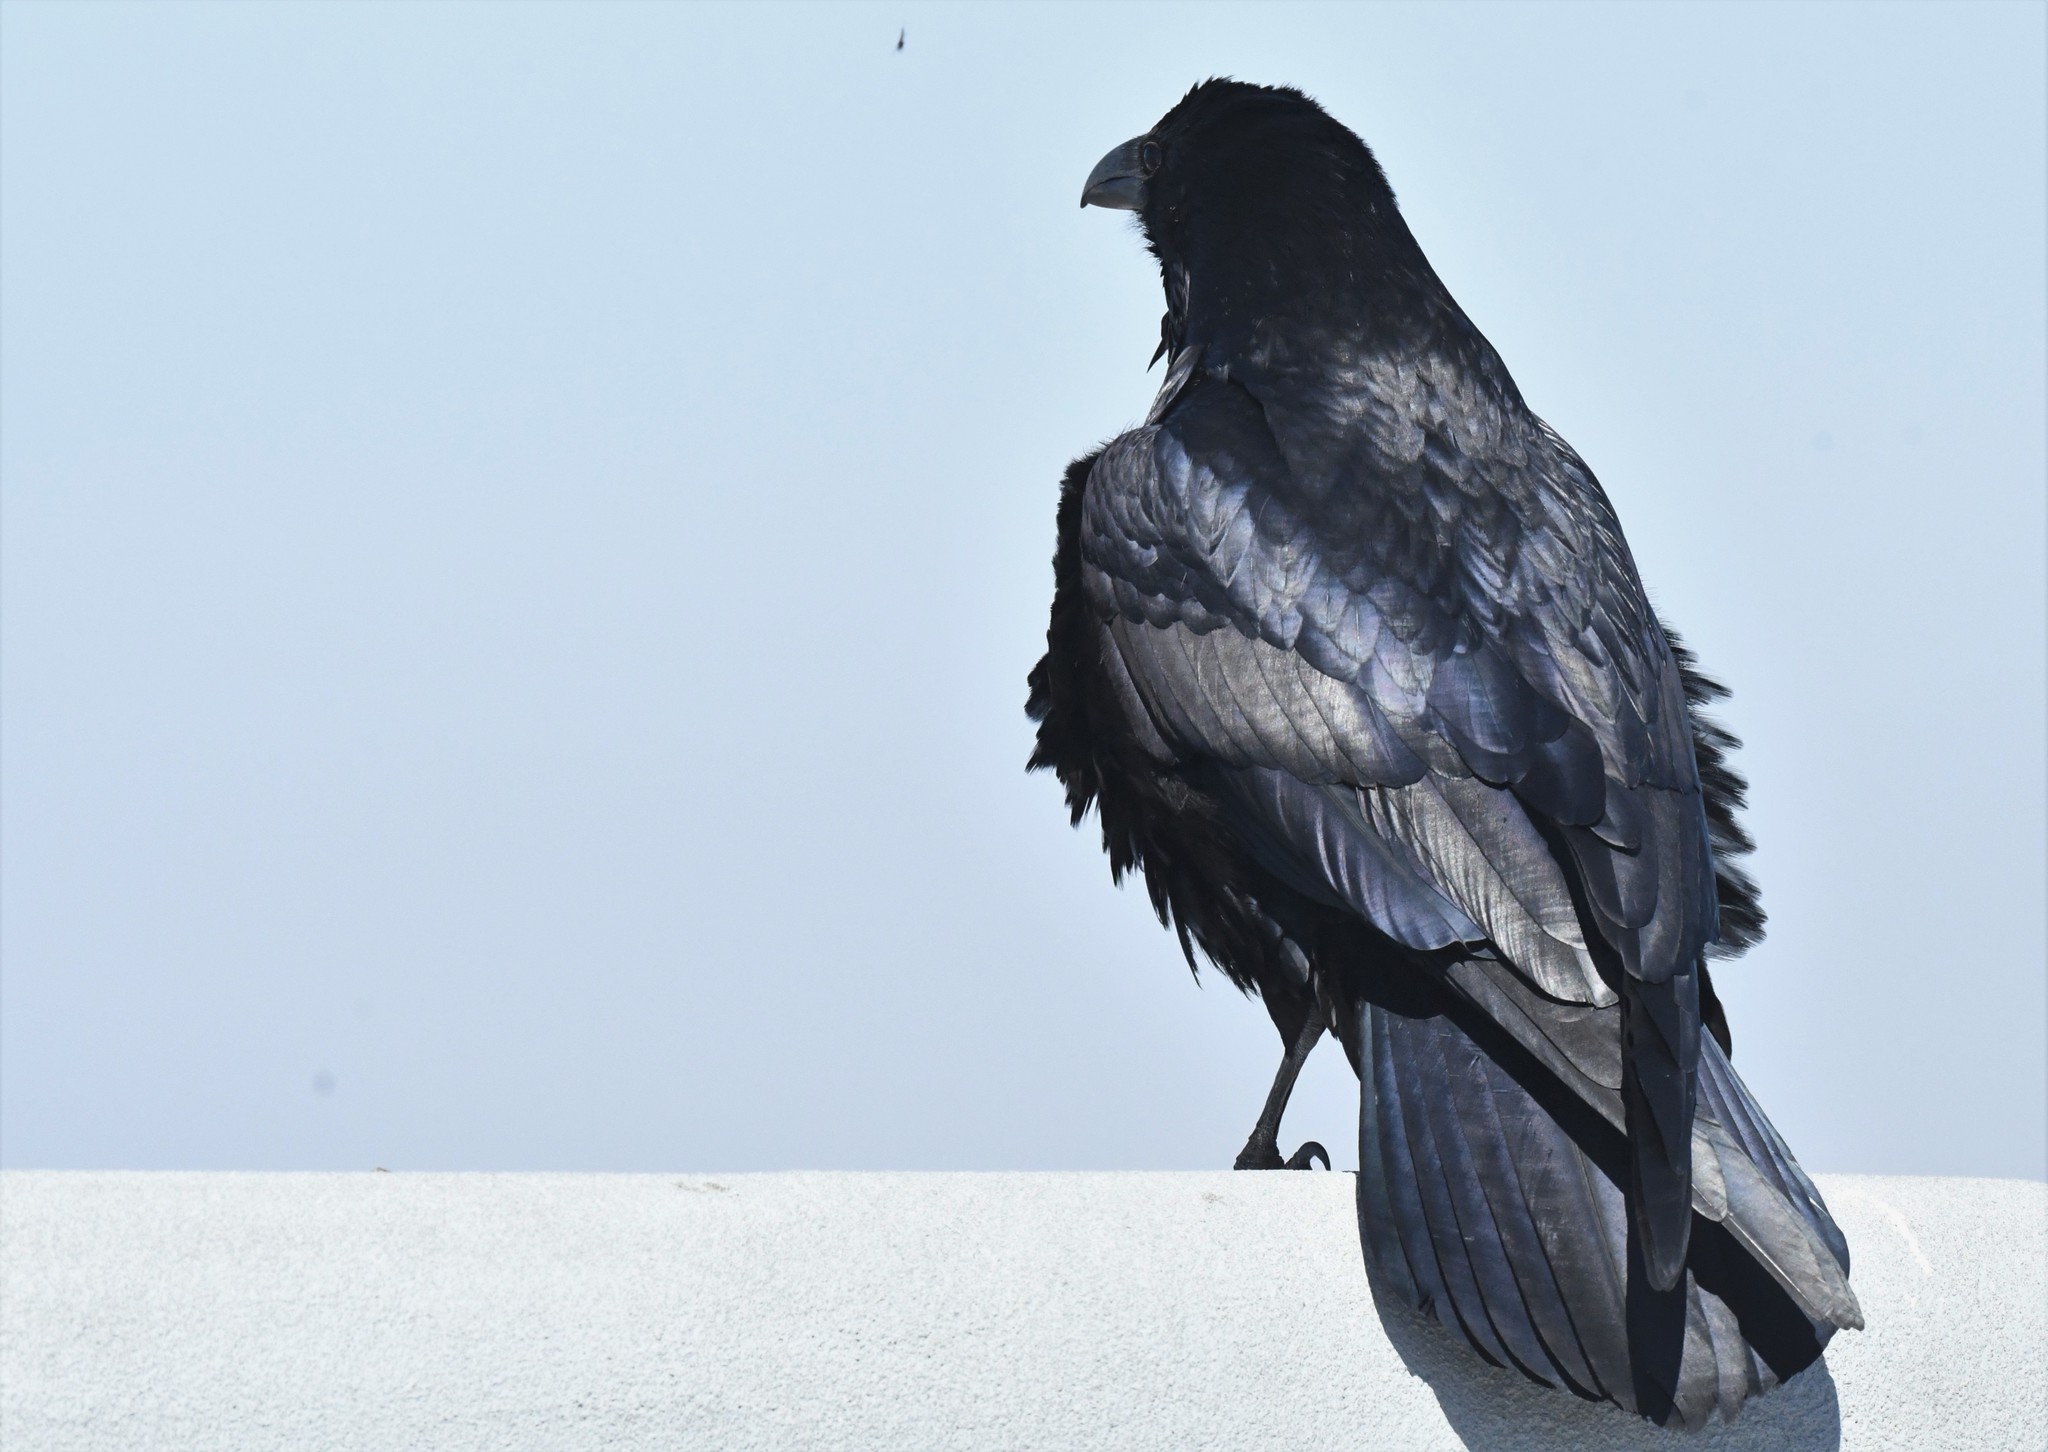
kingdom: Animalia
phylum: Chordata
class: Aves
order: Passeriformes
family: Corvidae
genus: Corvus
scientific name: Corvus corax
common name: Common raven
